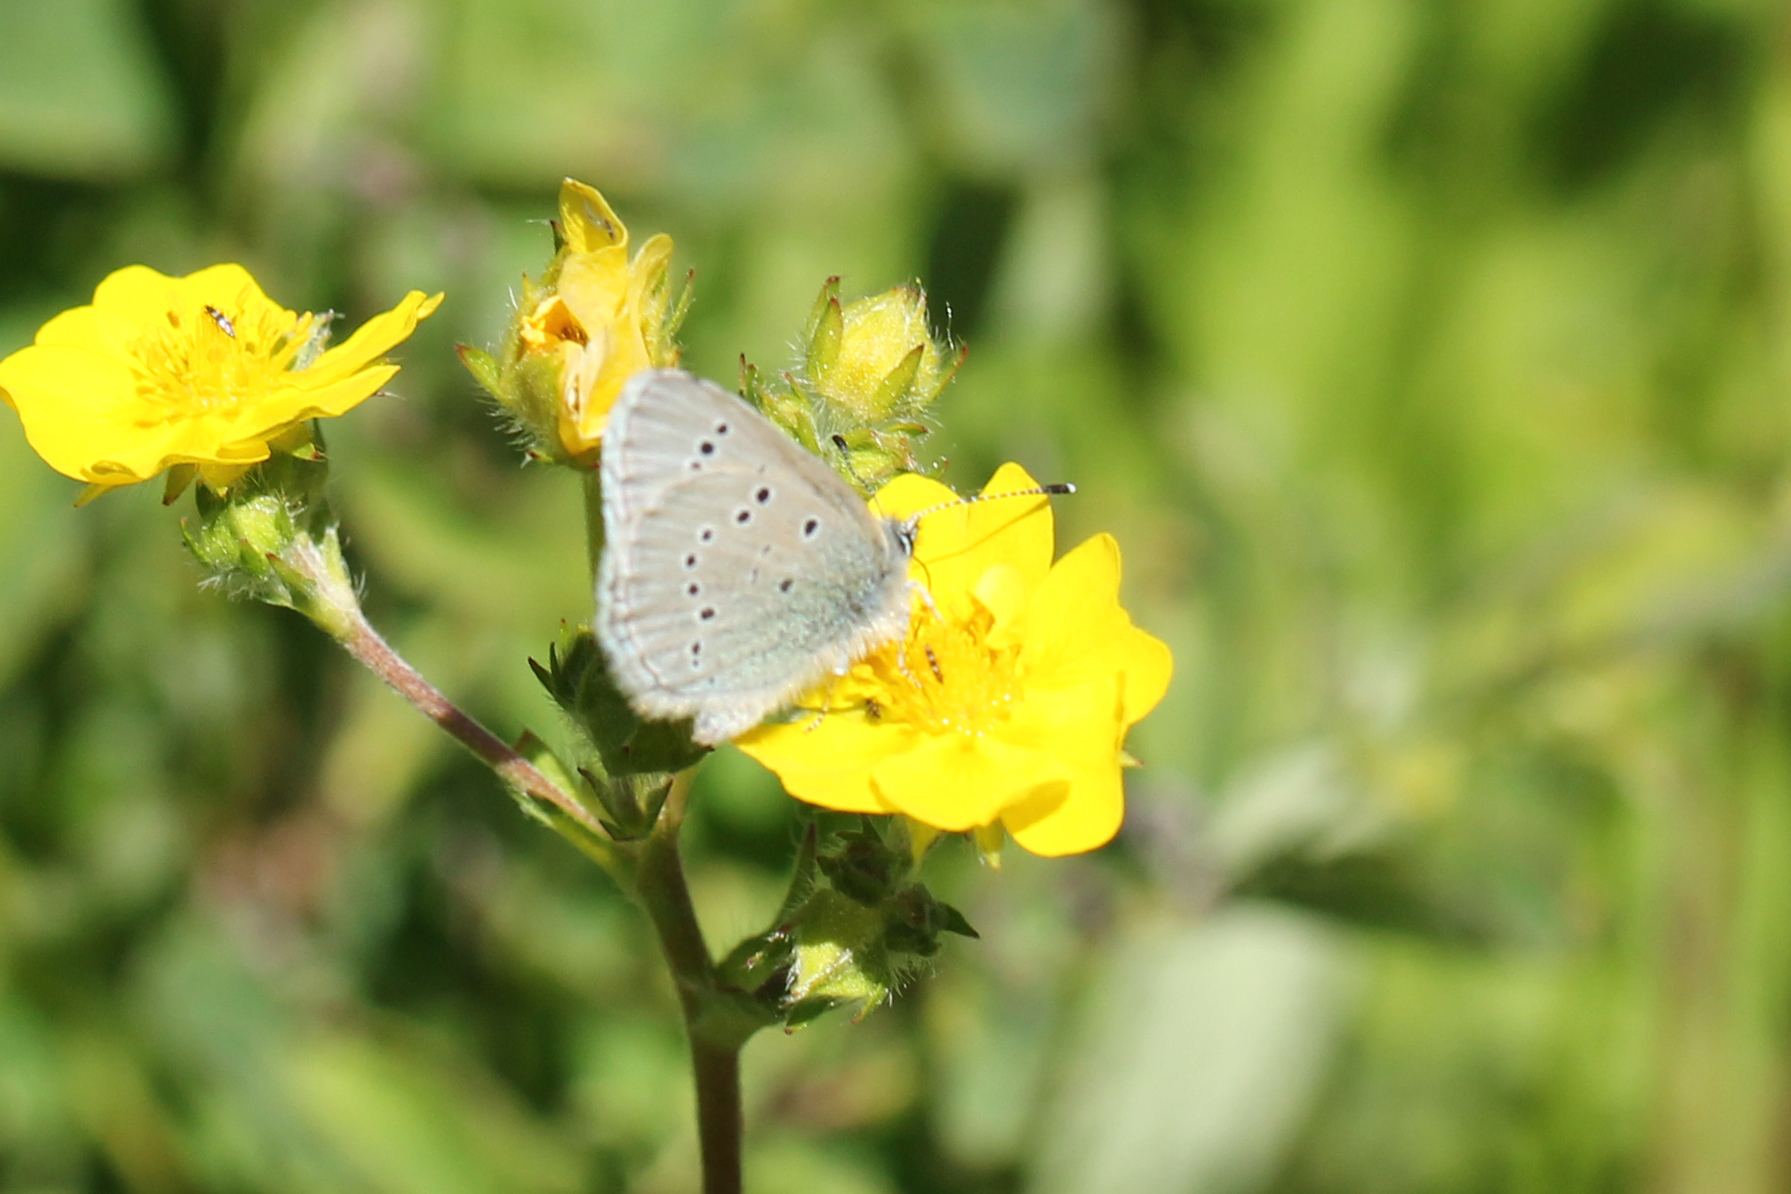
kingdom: Animalia
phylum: Arthropoda
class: Insecta
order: Lepidoptera
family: Lycaenidae
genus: Glaucopsyche
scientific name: Glaucopsyche lygdamus
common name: Silvery blue
